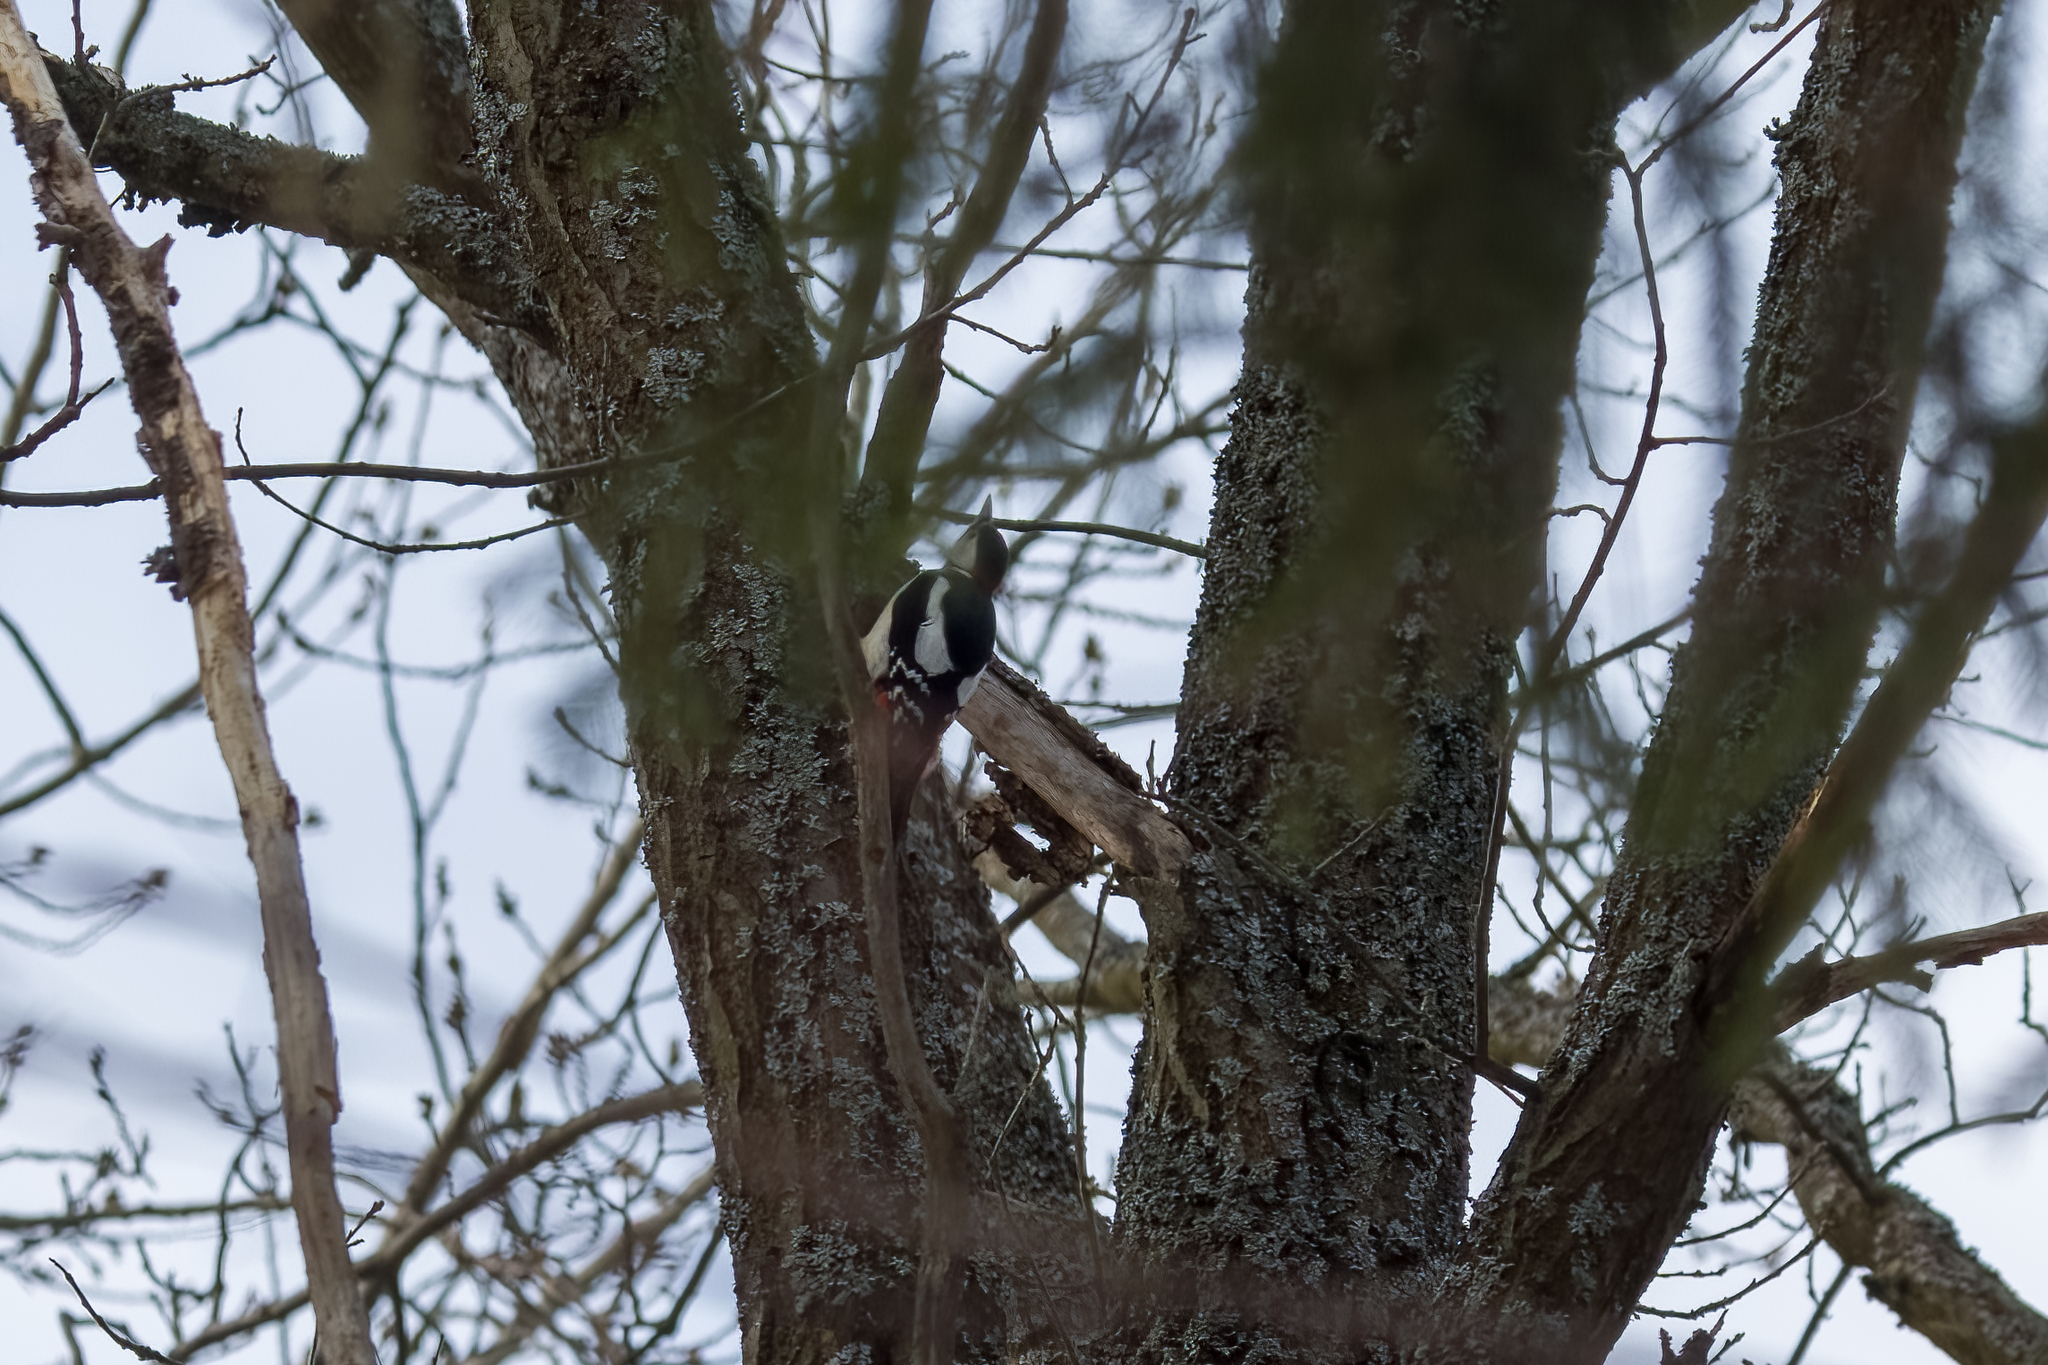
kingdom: Animalia
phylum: Chordata
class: Aves
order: Piciformes
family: Picidae
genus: Dendrocopos
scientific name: Dendrocopos major
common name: Great spotted woodpecker
